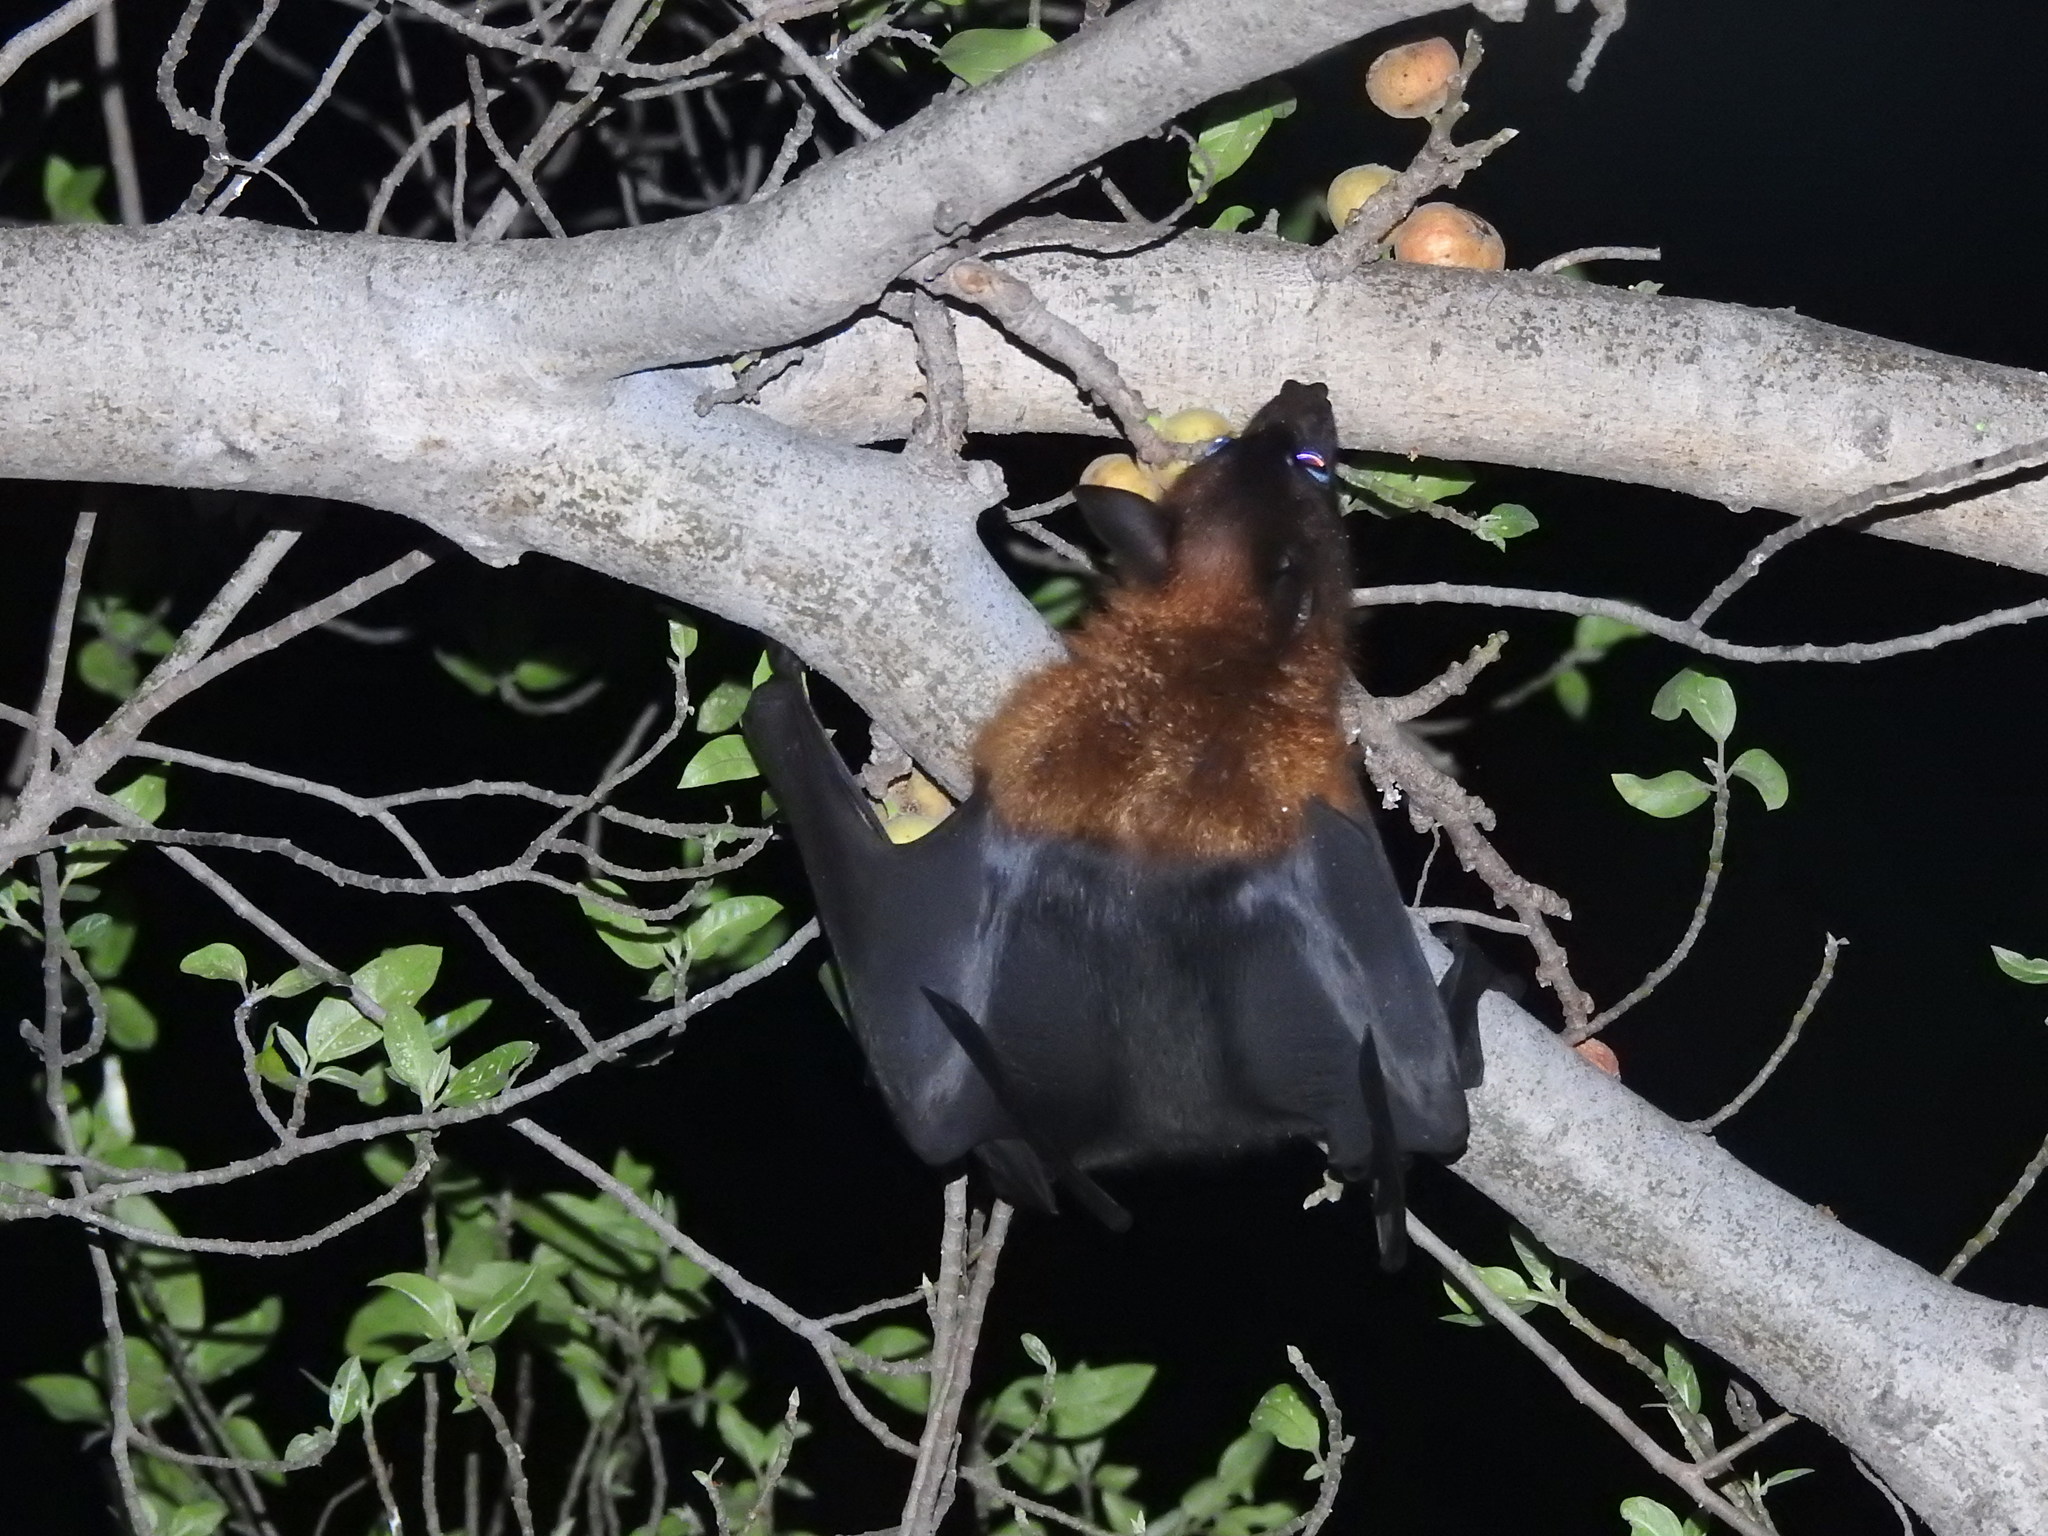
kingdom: Animalia
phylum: Chordata
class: Mammalia
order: Chiroptera
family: Pteropodidae
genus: Pteropus
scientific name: Pteropus vampyrus
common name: Large flying fox
